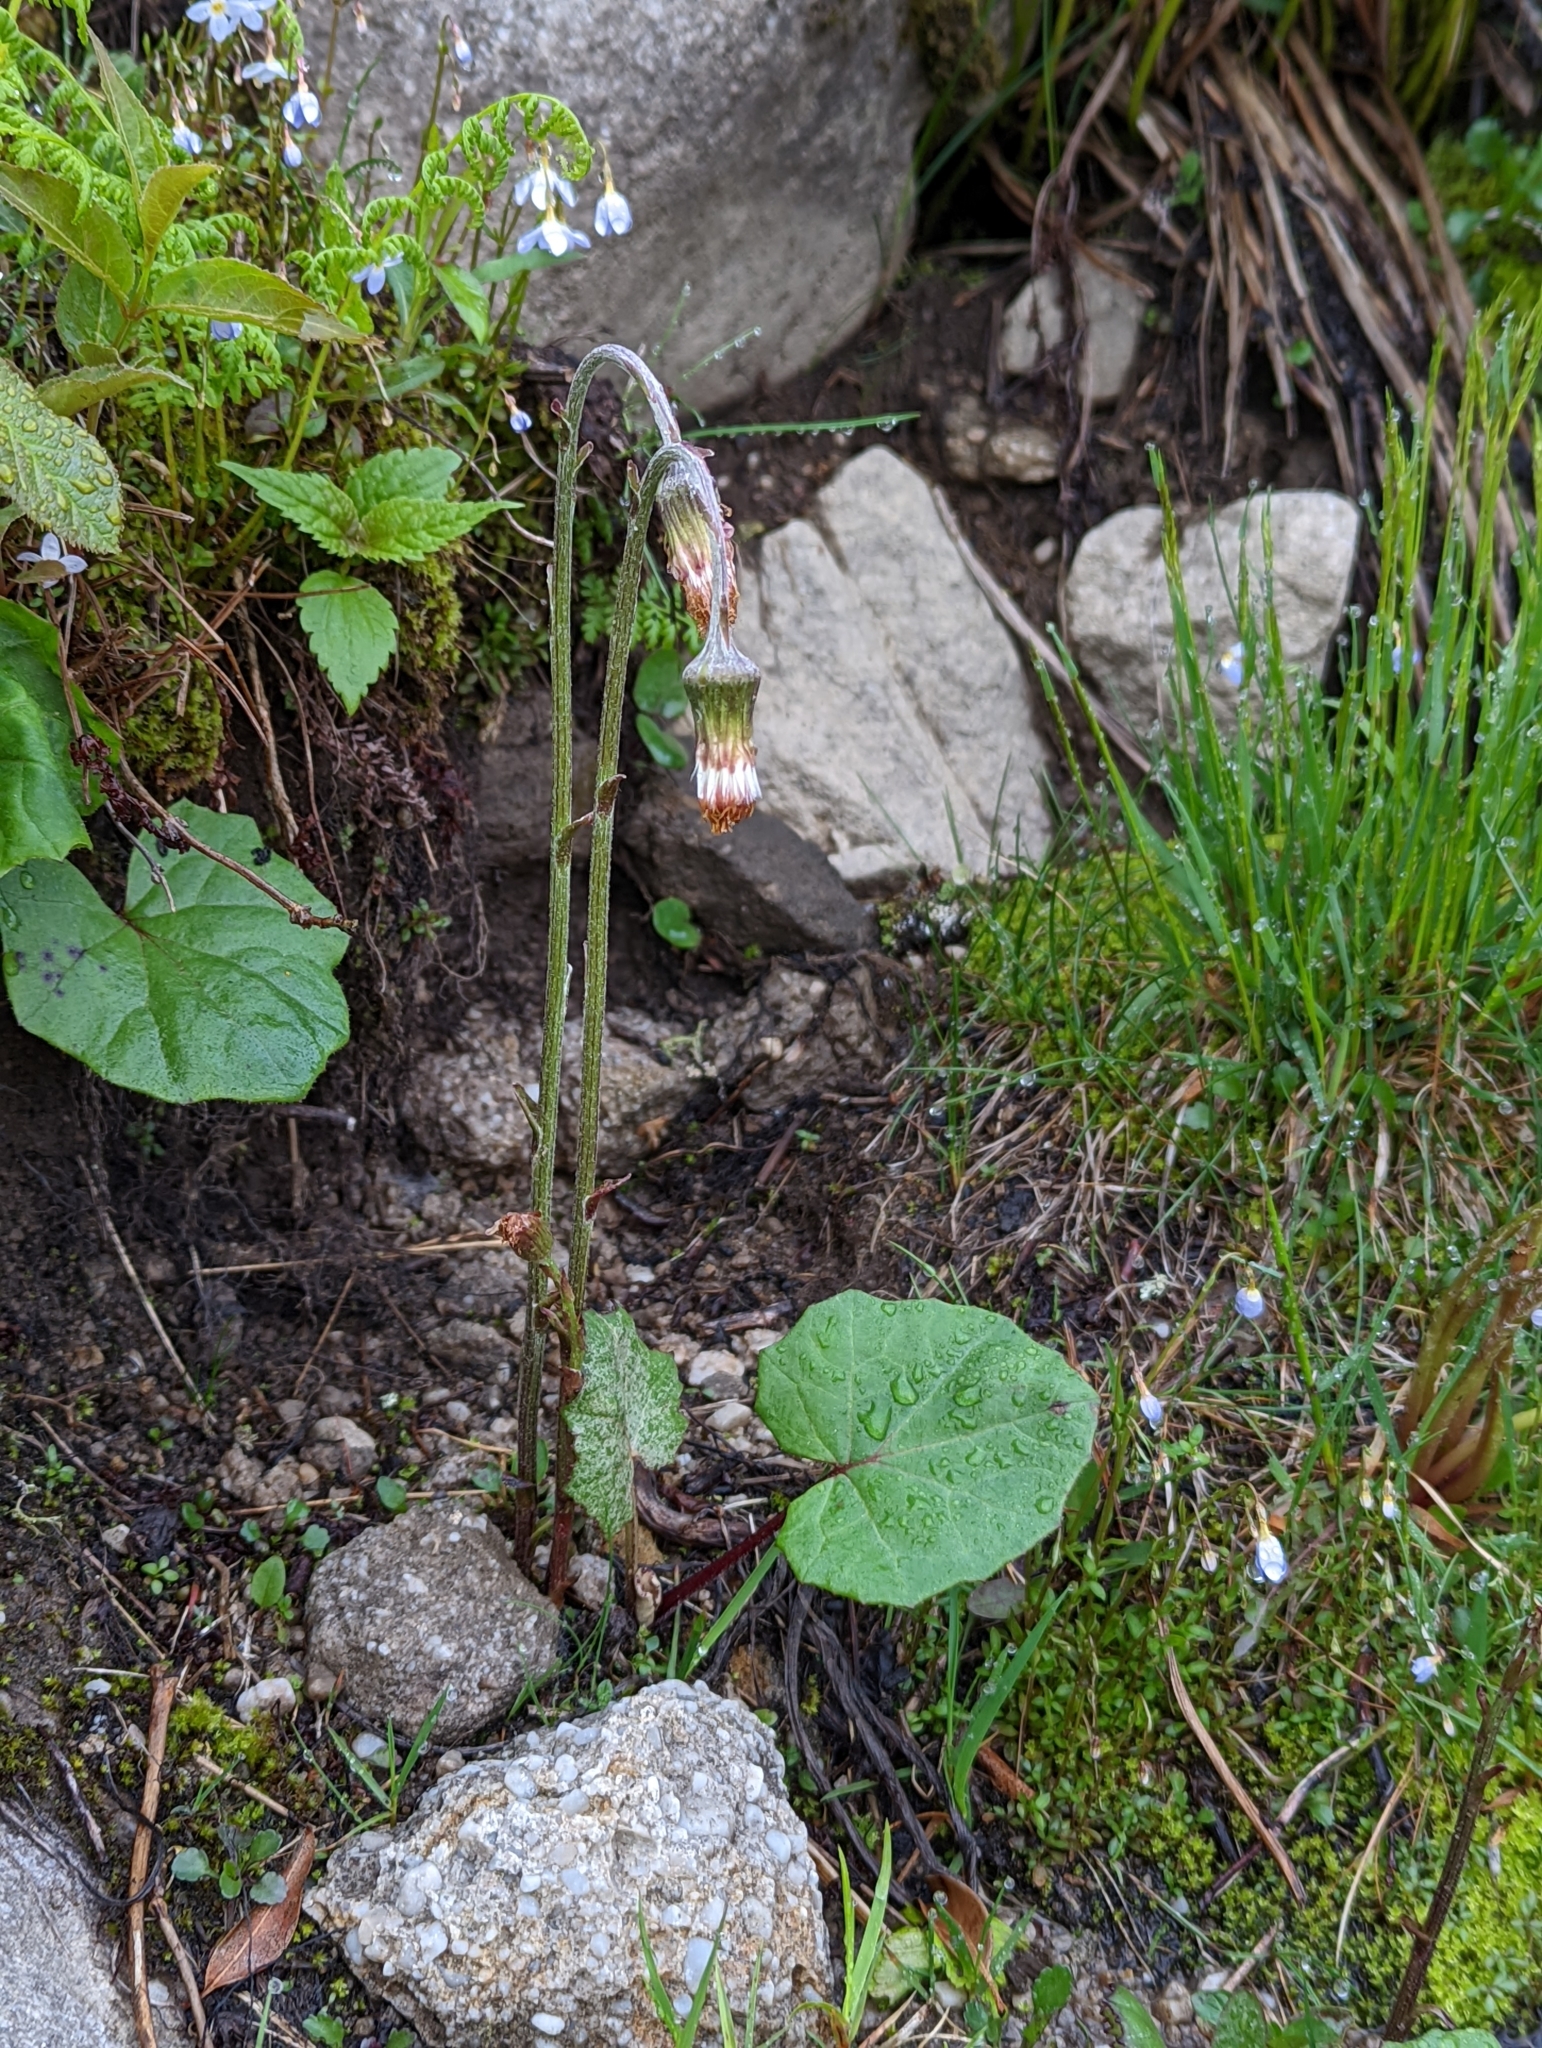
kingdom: Plantae
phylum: Tracheophyta
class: Magnoliopsida
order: Asterales
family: Asteraceae
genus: Tussilago
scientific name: Tussilago farfara
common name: Coltsfoot
